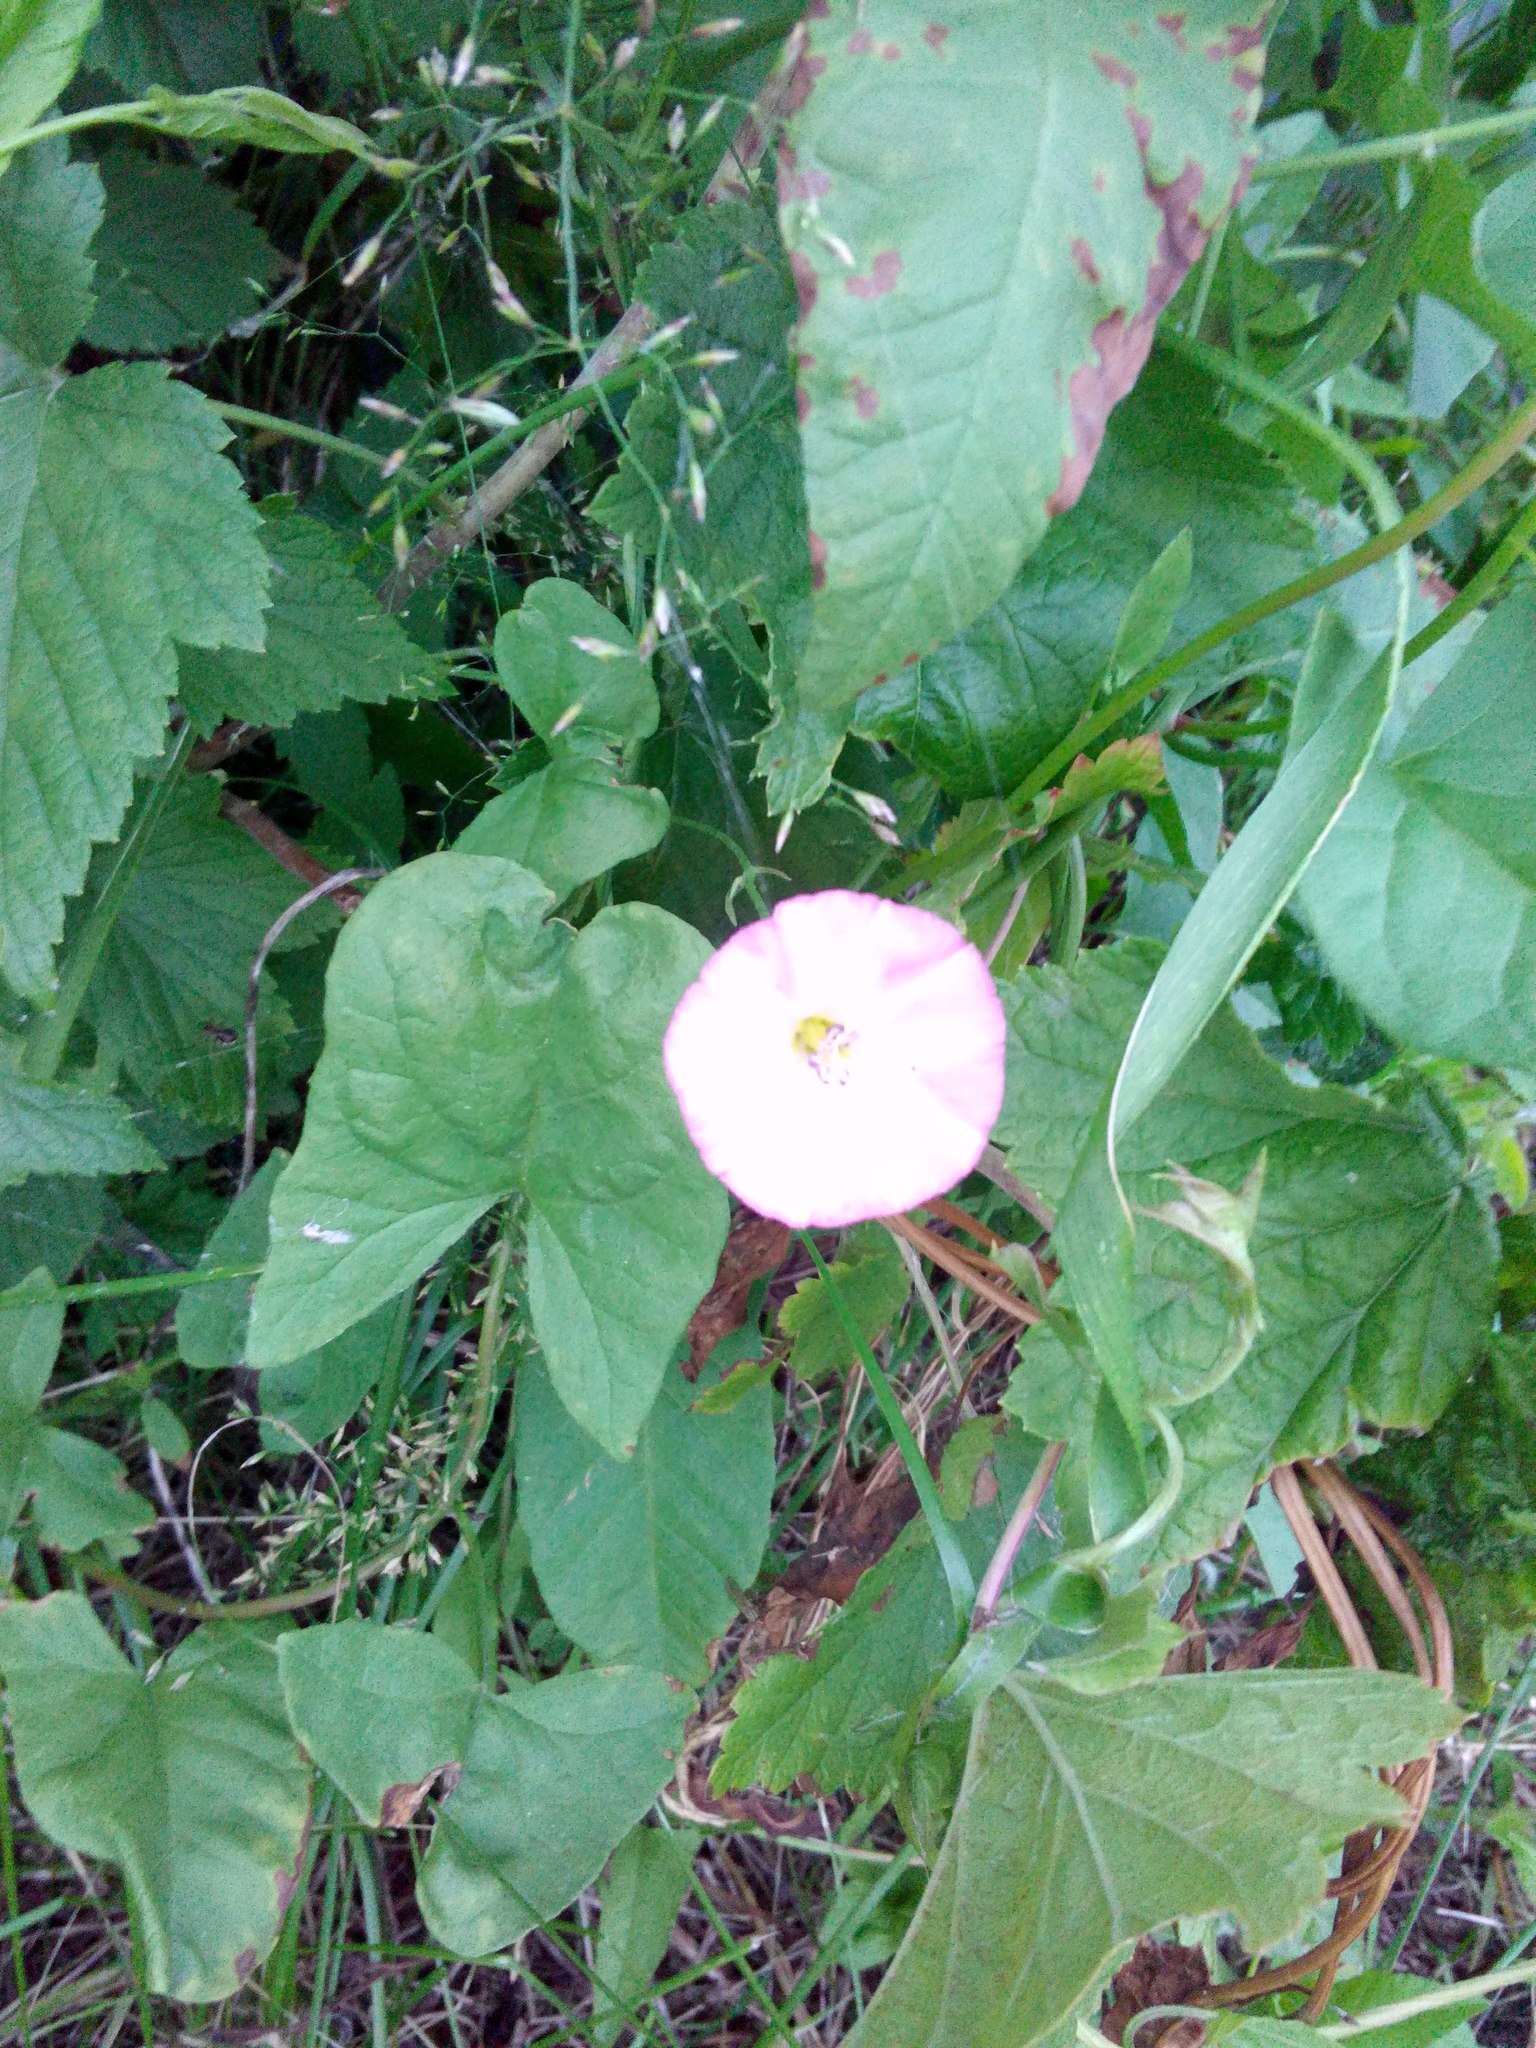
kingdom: Plantae
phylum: Tracheophyta
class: Magnoliopsida
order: Solanales
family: Convolvulaceae
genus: Convolvulus
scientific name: Convolvulus arvensis
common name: Field bindweed
